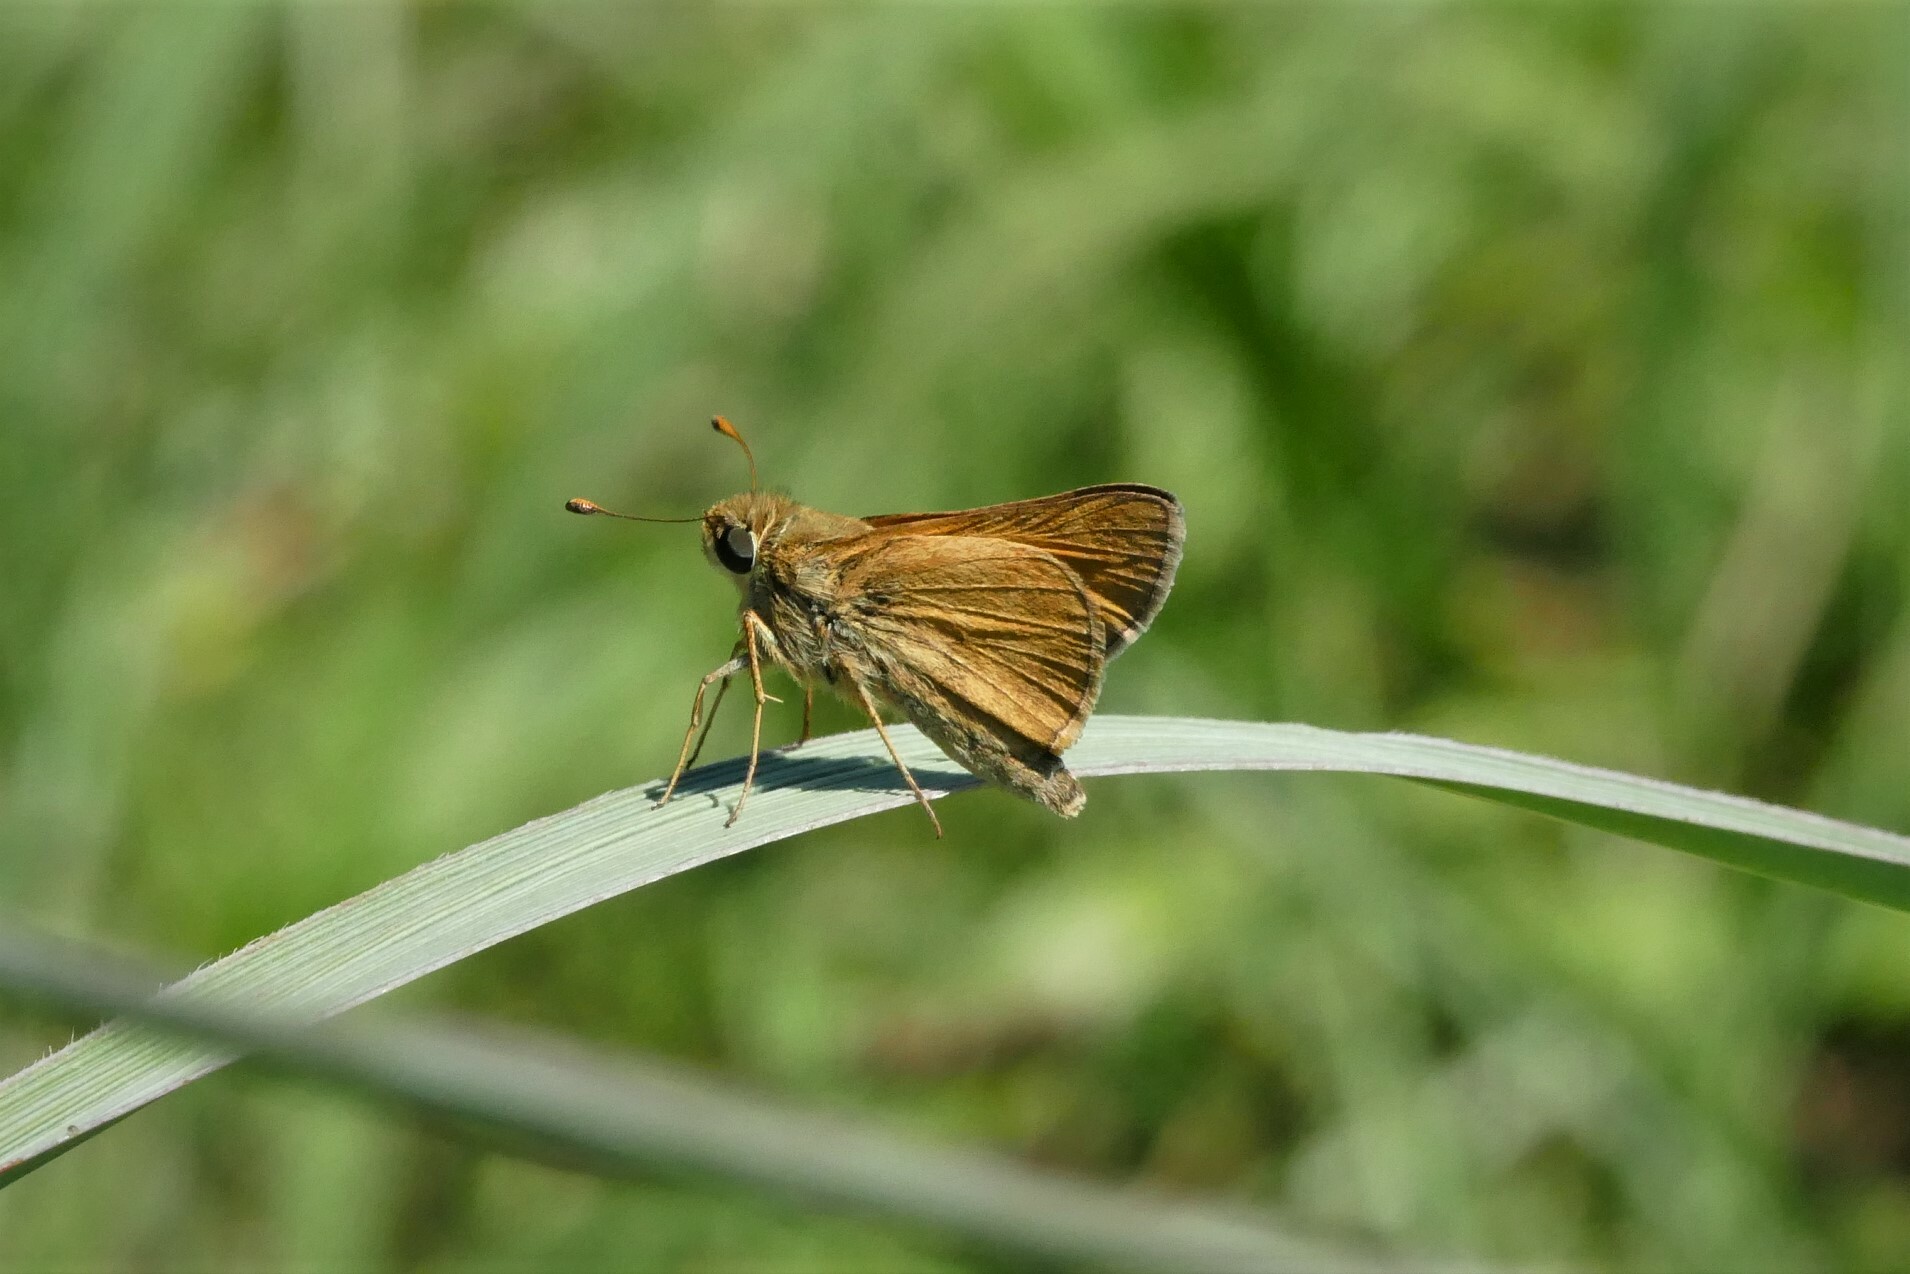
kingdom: Animalia
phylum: Arthropoda
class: Insecta
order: Lepidoptera
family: Hesperiidae
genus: Atalopedes
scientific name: Atalopedes
